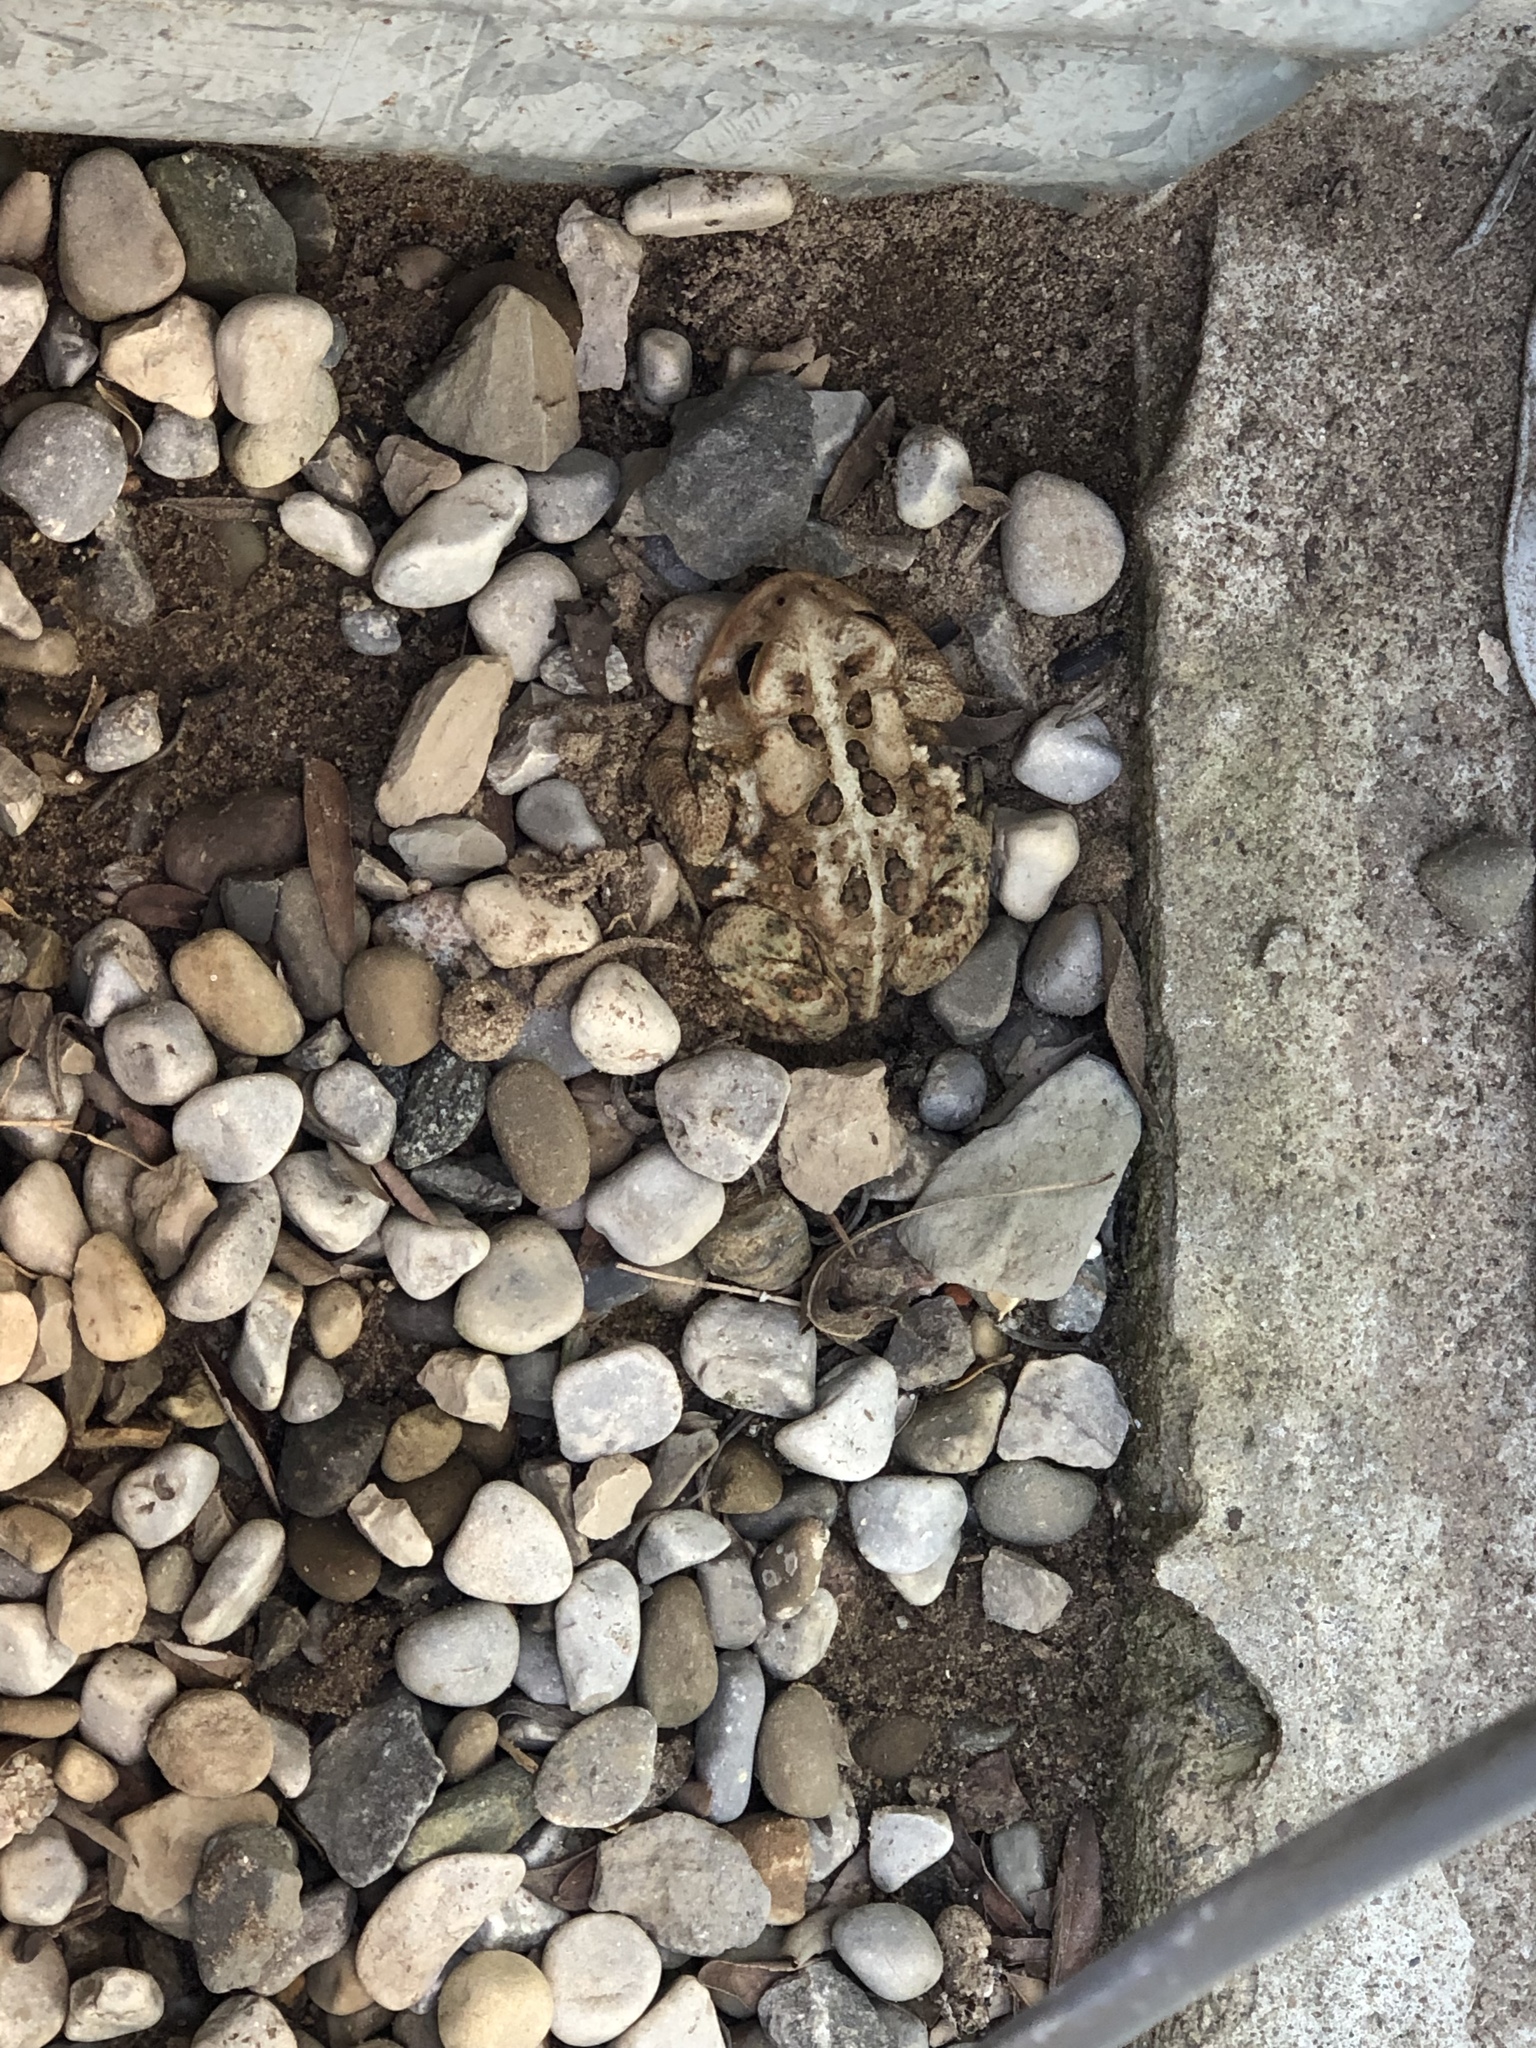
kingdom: Animalia
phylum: Chordata
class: Amphibia
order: Anura
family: Bufonidae
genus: Anaxyrus
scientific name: Anaxyrus americanus
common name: American toad
